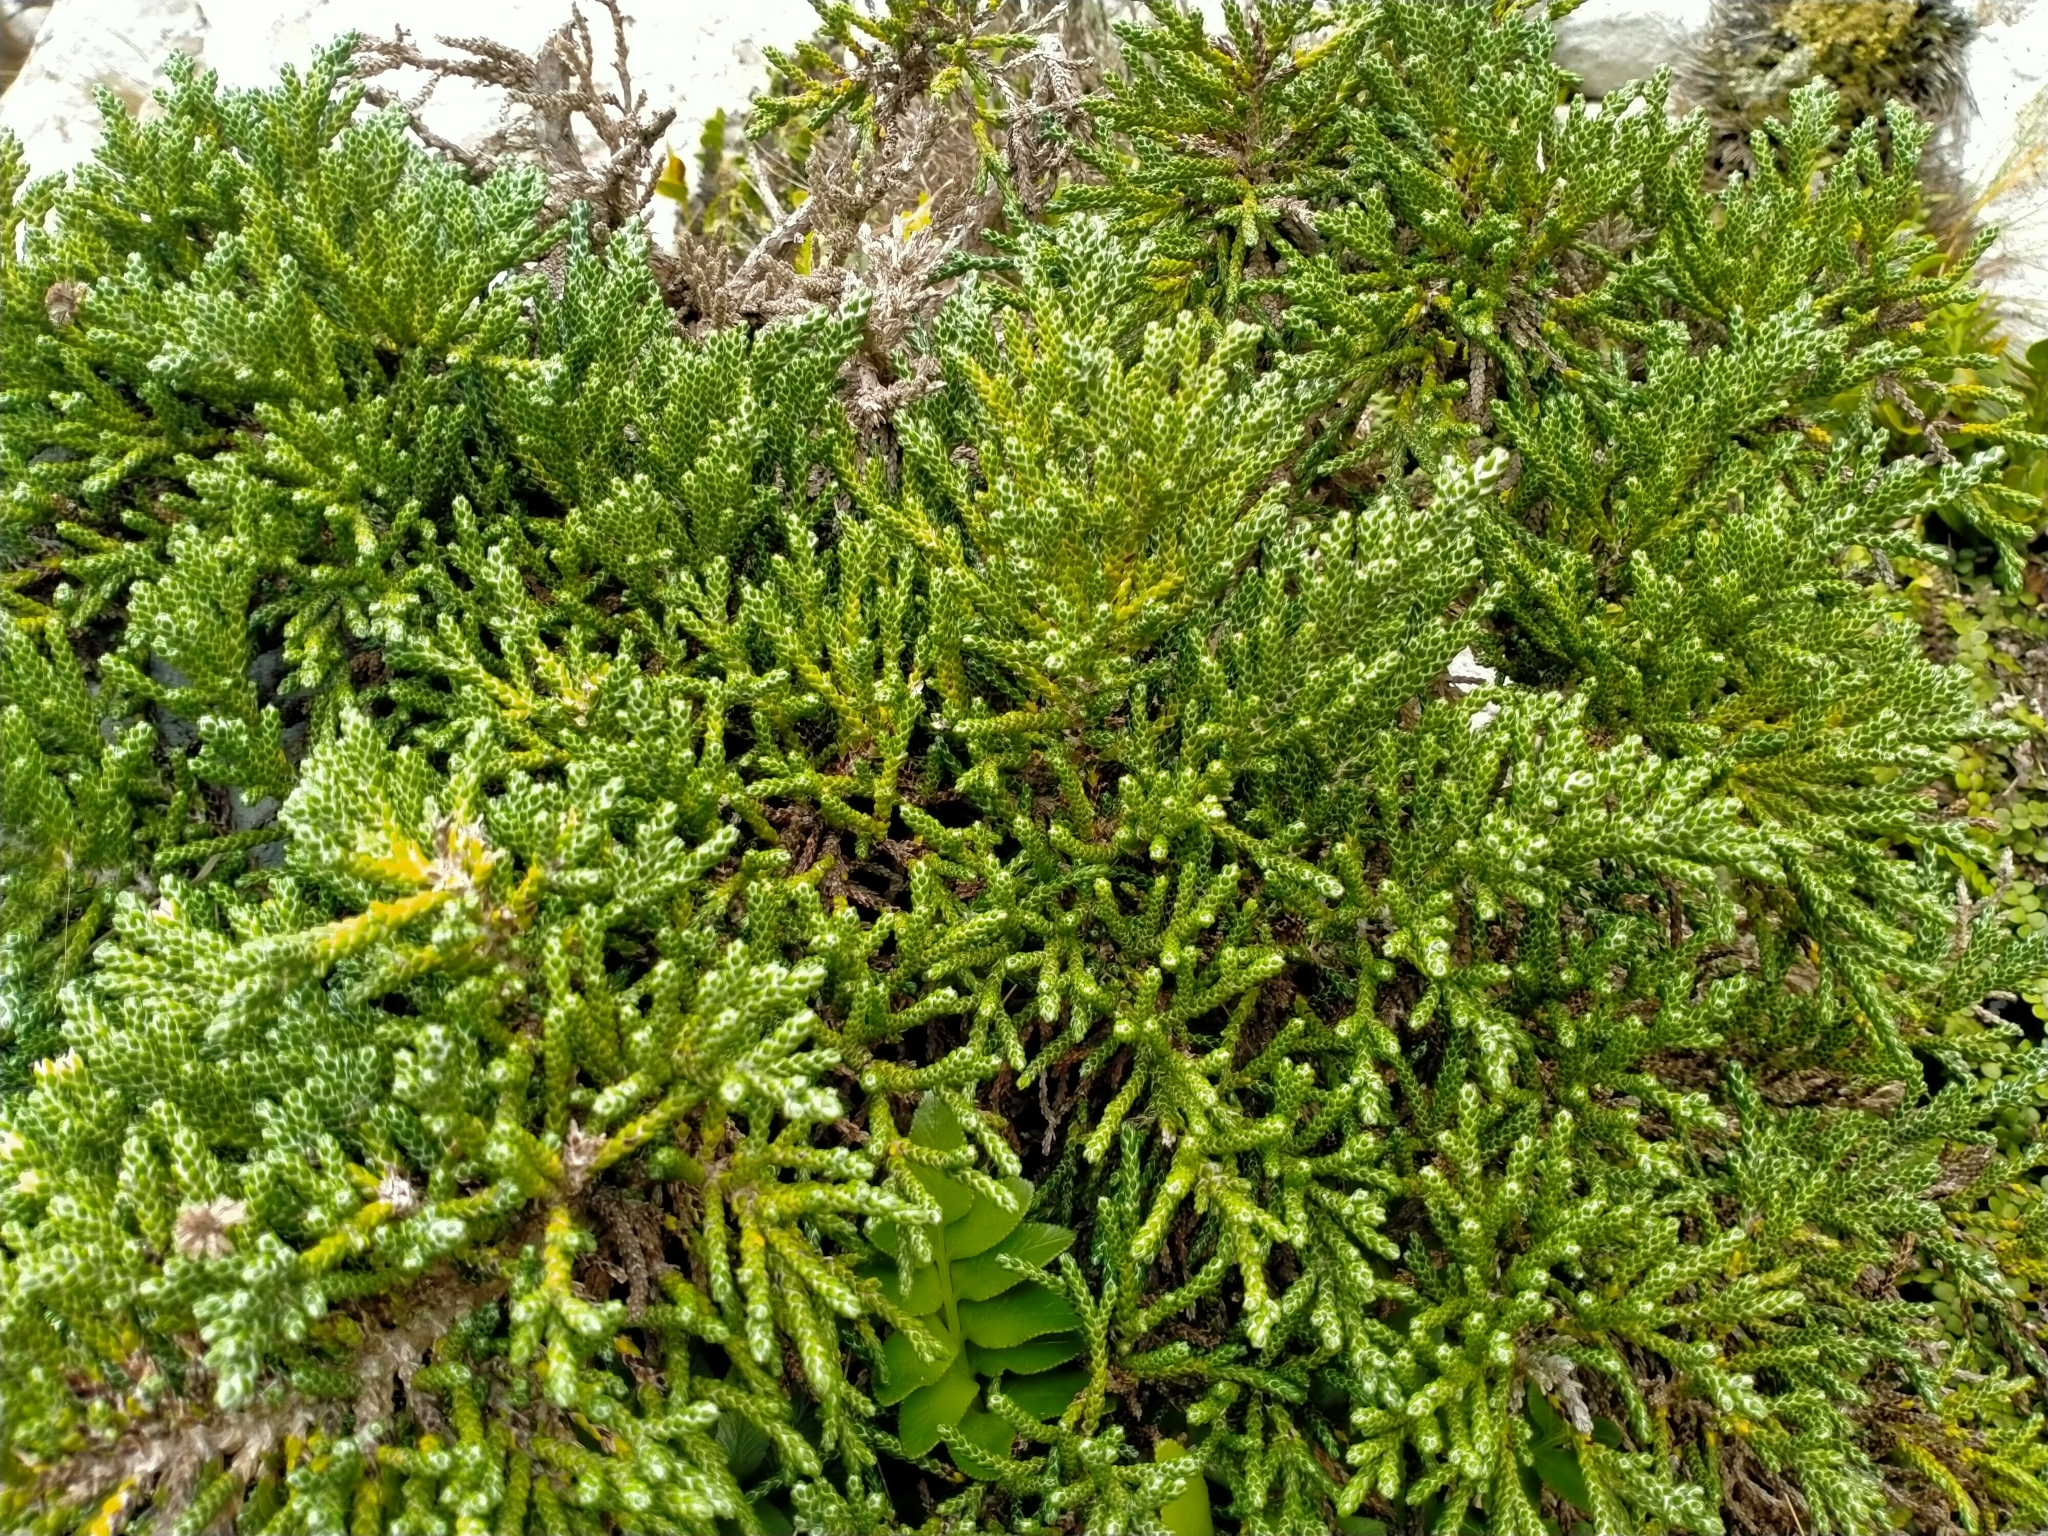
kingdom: Plantae
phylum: Tracheophyta
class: Magnoliopsida
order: Asterales
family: Asteraceae
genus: Helichrysum
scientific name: Helichrysum
